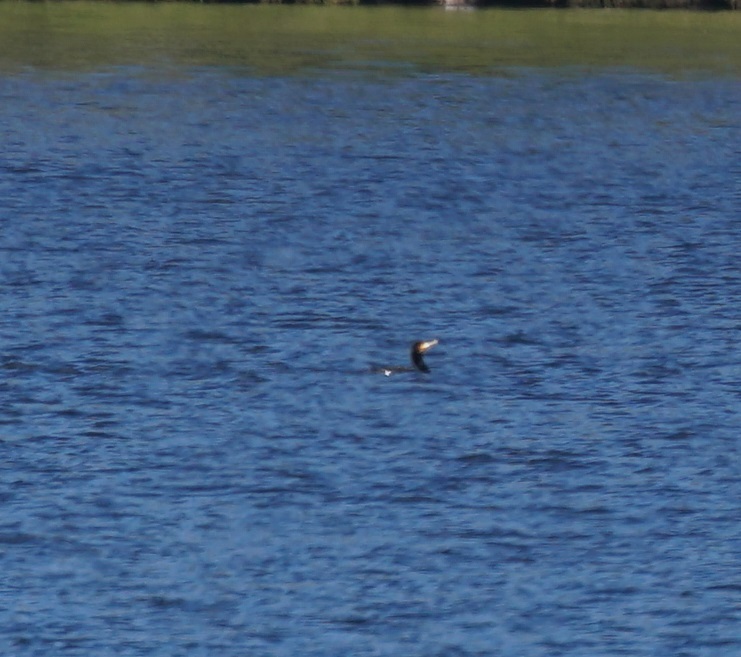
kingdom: Animalia
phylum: Chordata
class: Aves
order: Suliformes
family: Phalacrocoracidae
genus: Phalacrocorax
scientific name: Phalacrocorax carbo
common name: Great cormorant
